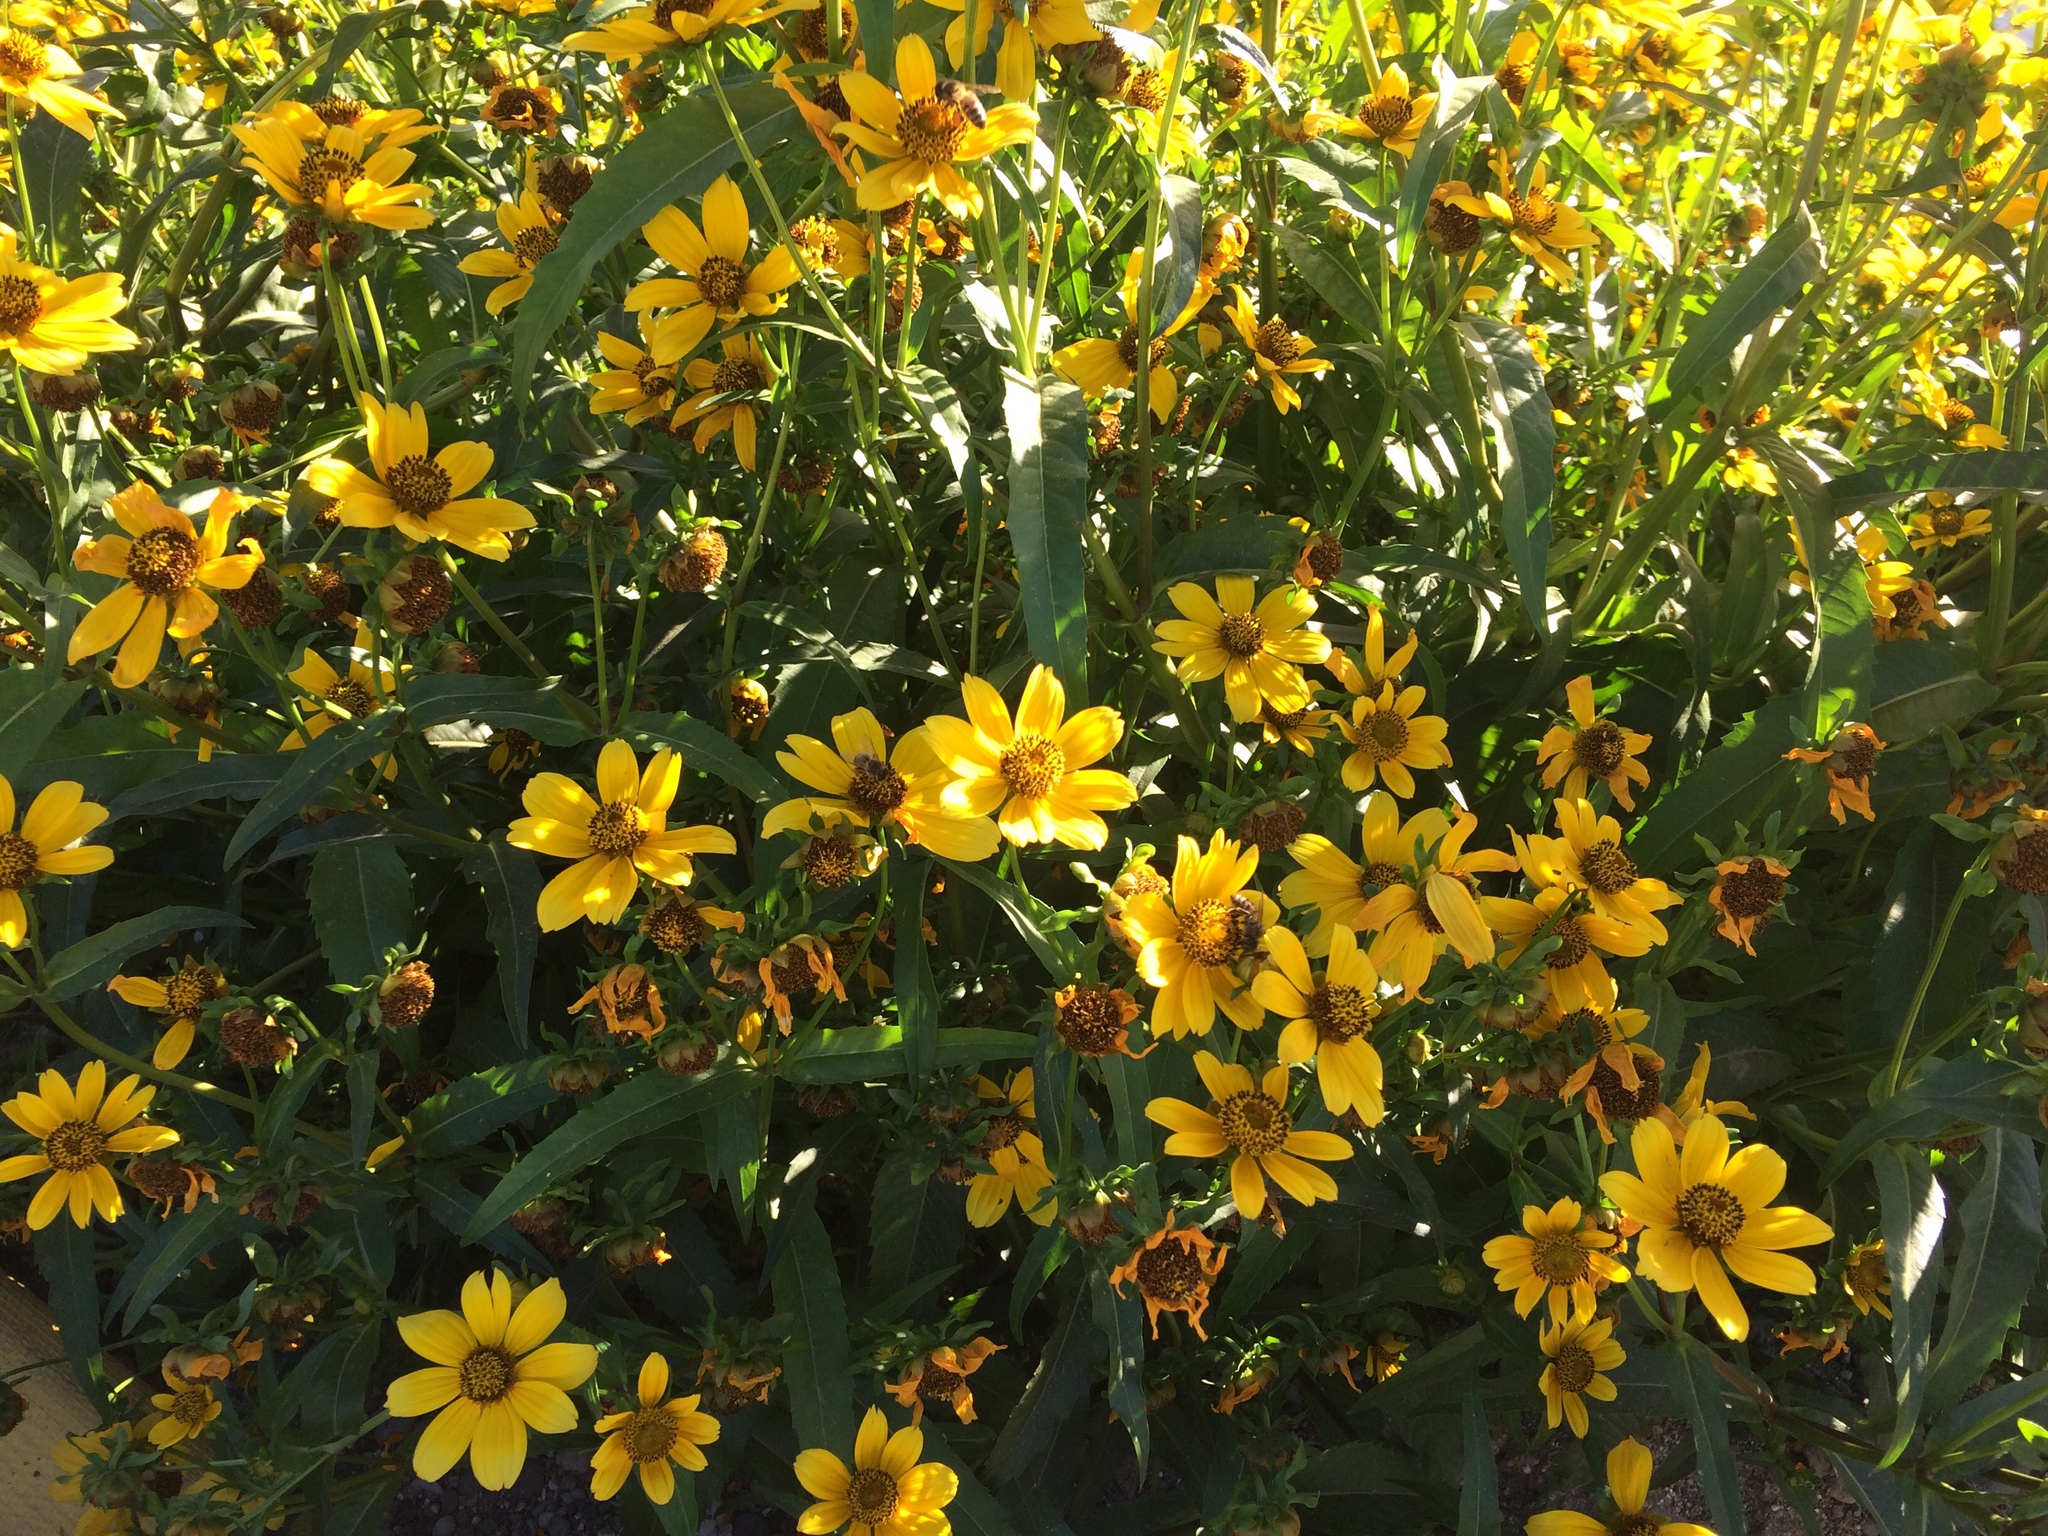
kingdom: Plantae
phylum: Tracheophyta
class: Magnoliopsida
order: Asterales
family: Asteraceae
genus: Bidens
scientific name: Bidens laevis
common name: Larger bur-marigold
